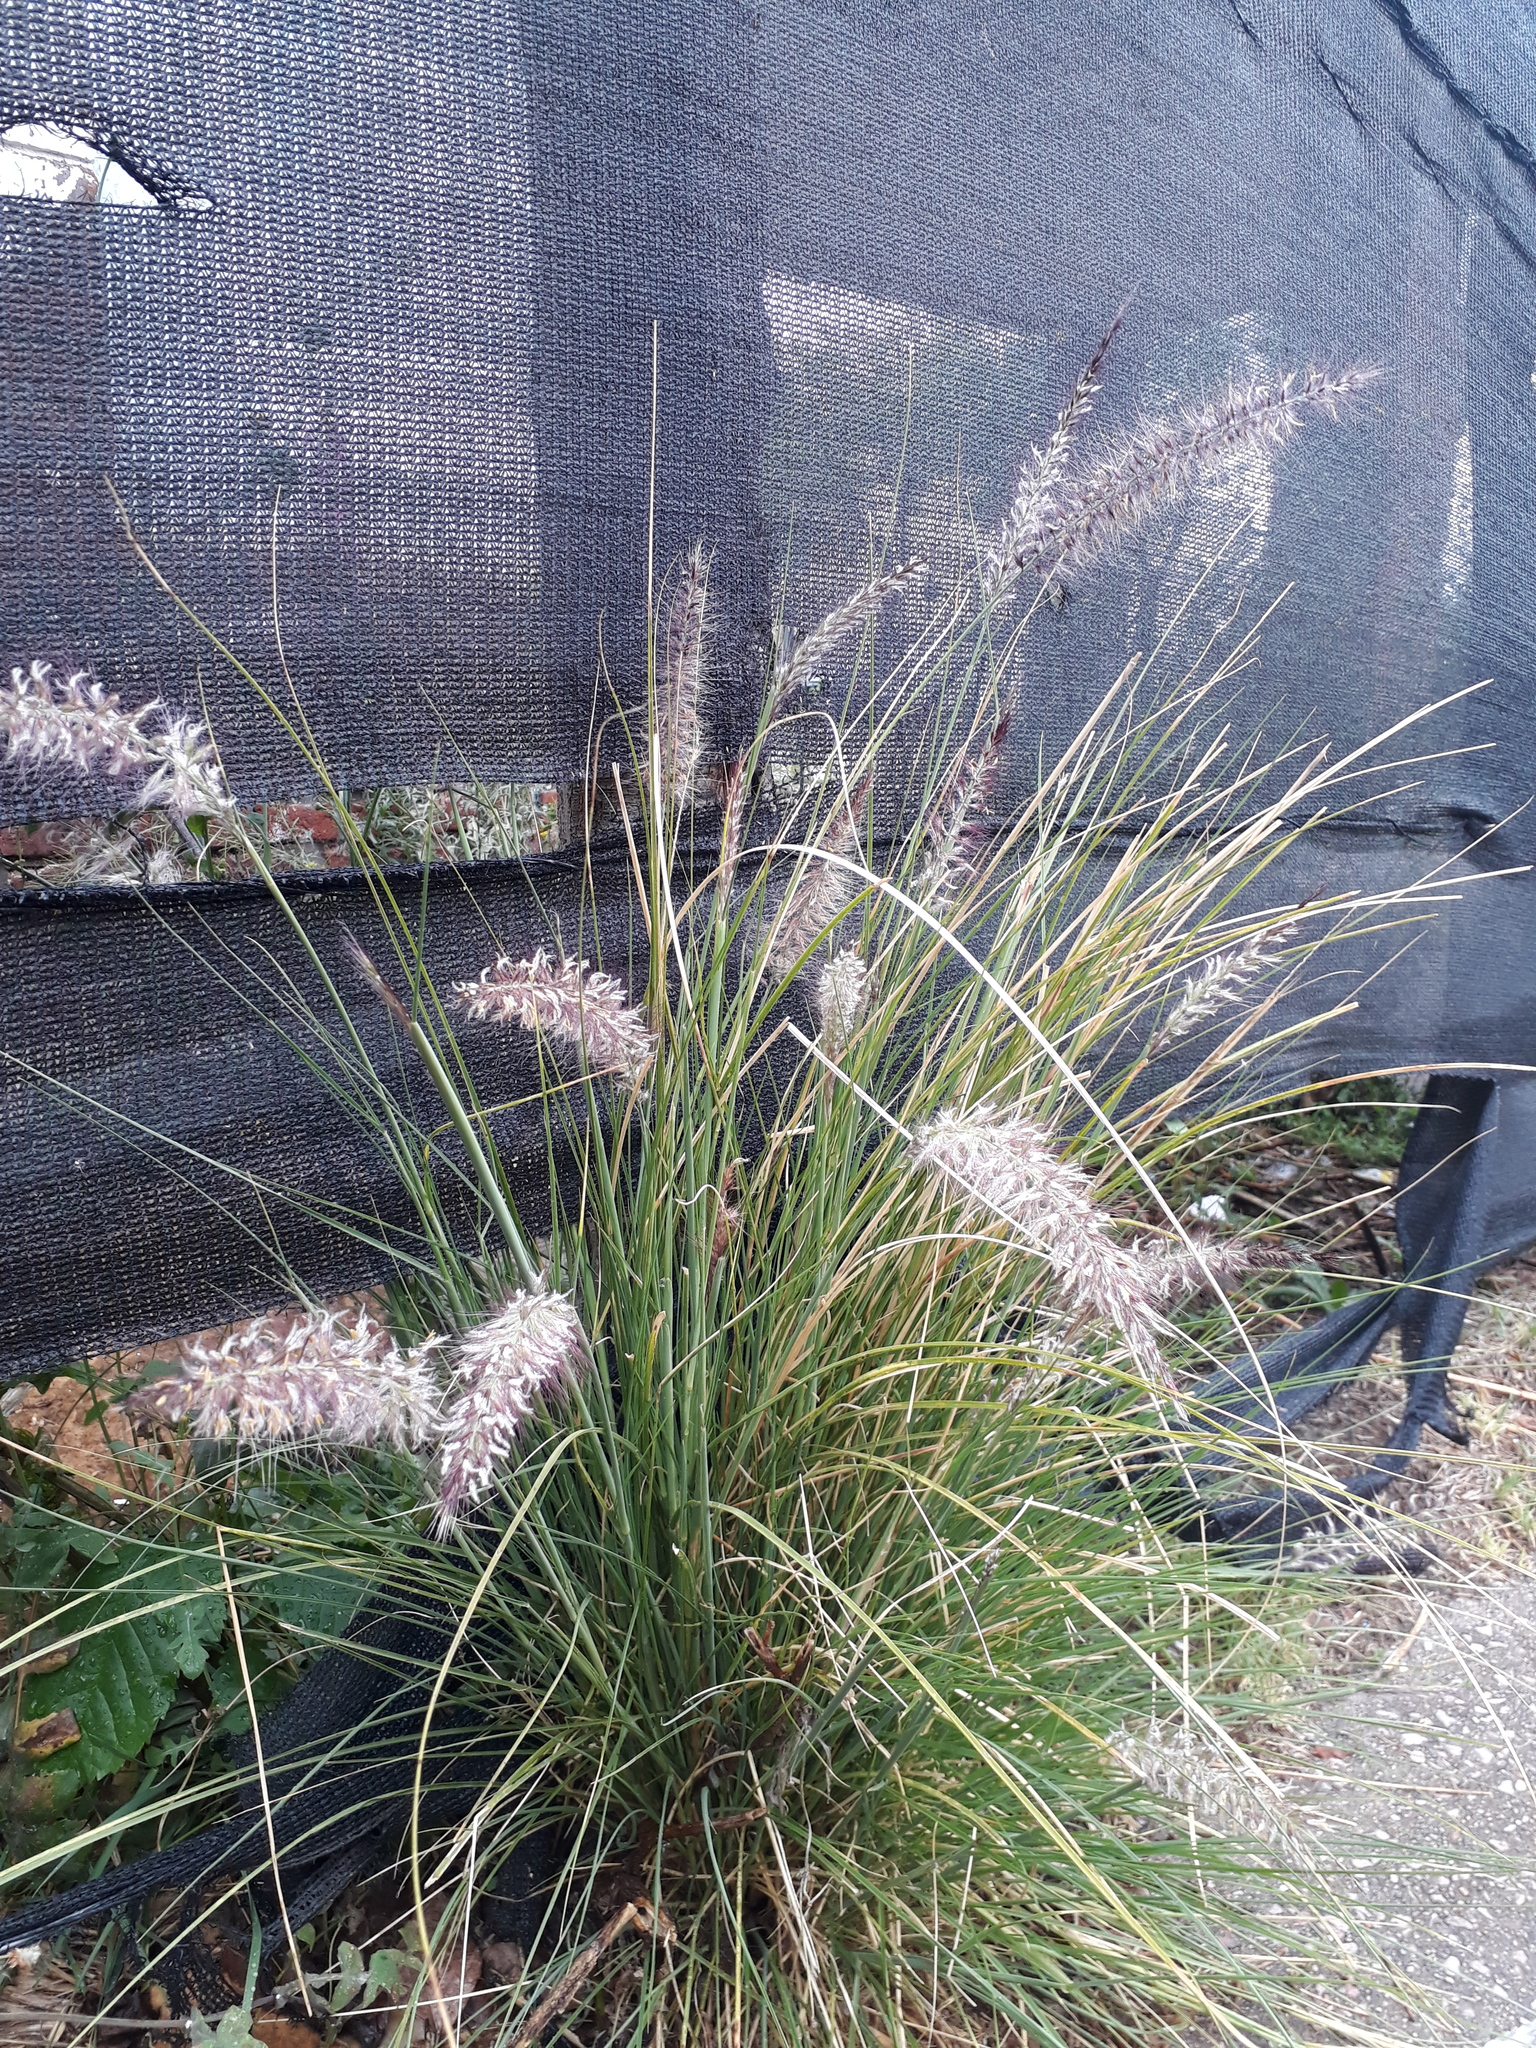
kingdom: Plantae
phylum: Tracheophyta
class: Liliopsida
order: Poales
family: Poaceae
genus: Cenchrus
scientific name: Cenchrus setaceus
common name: Crimson fountaingrass
